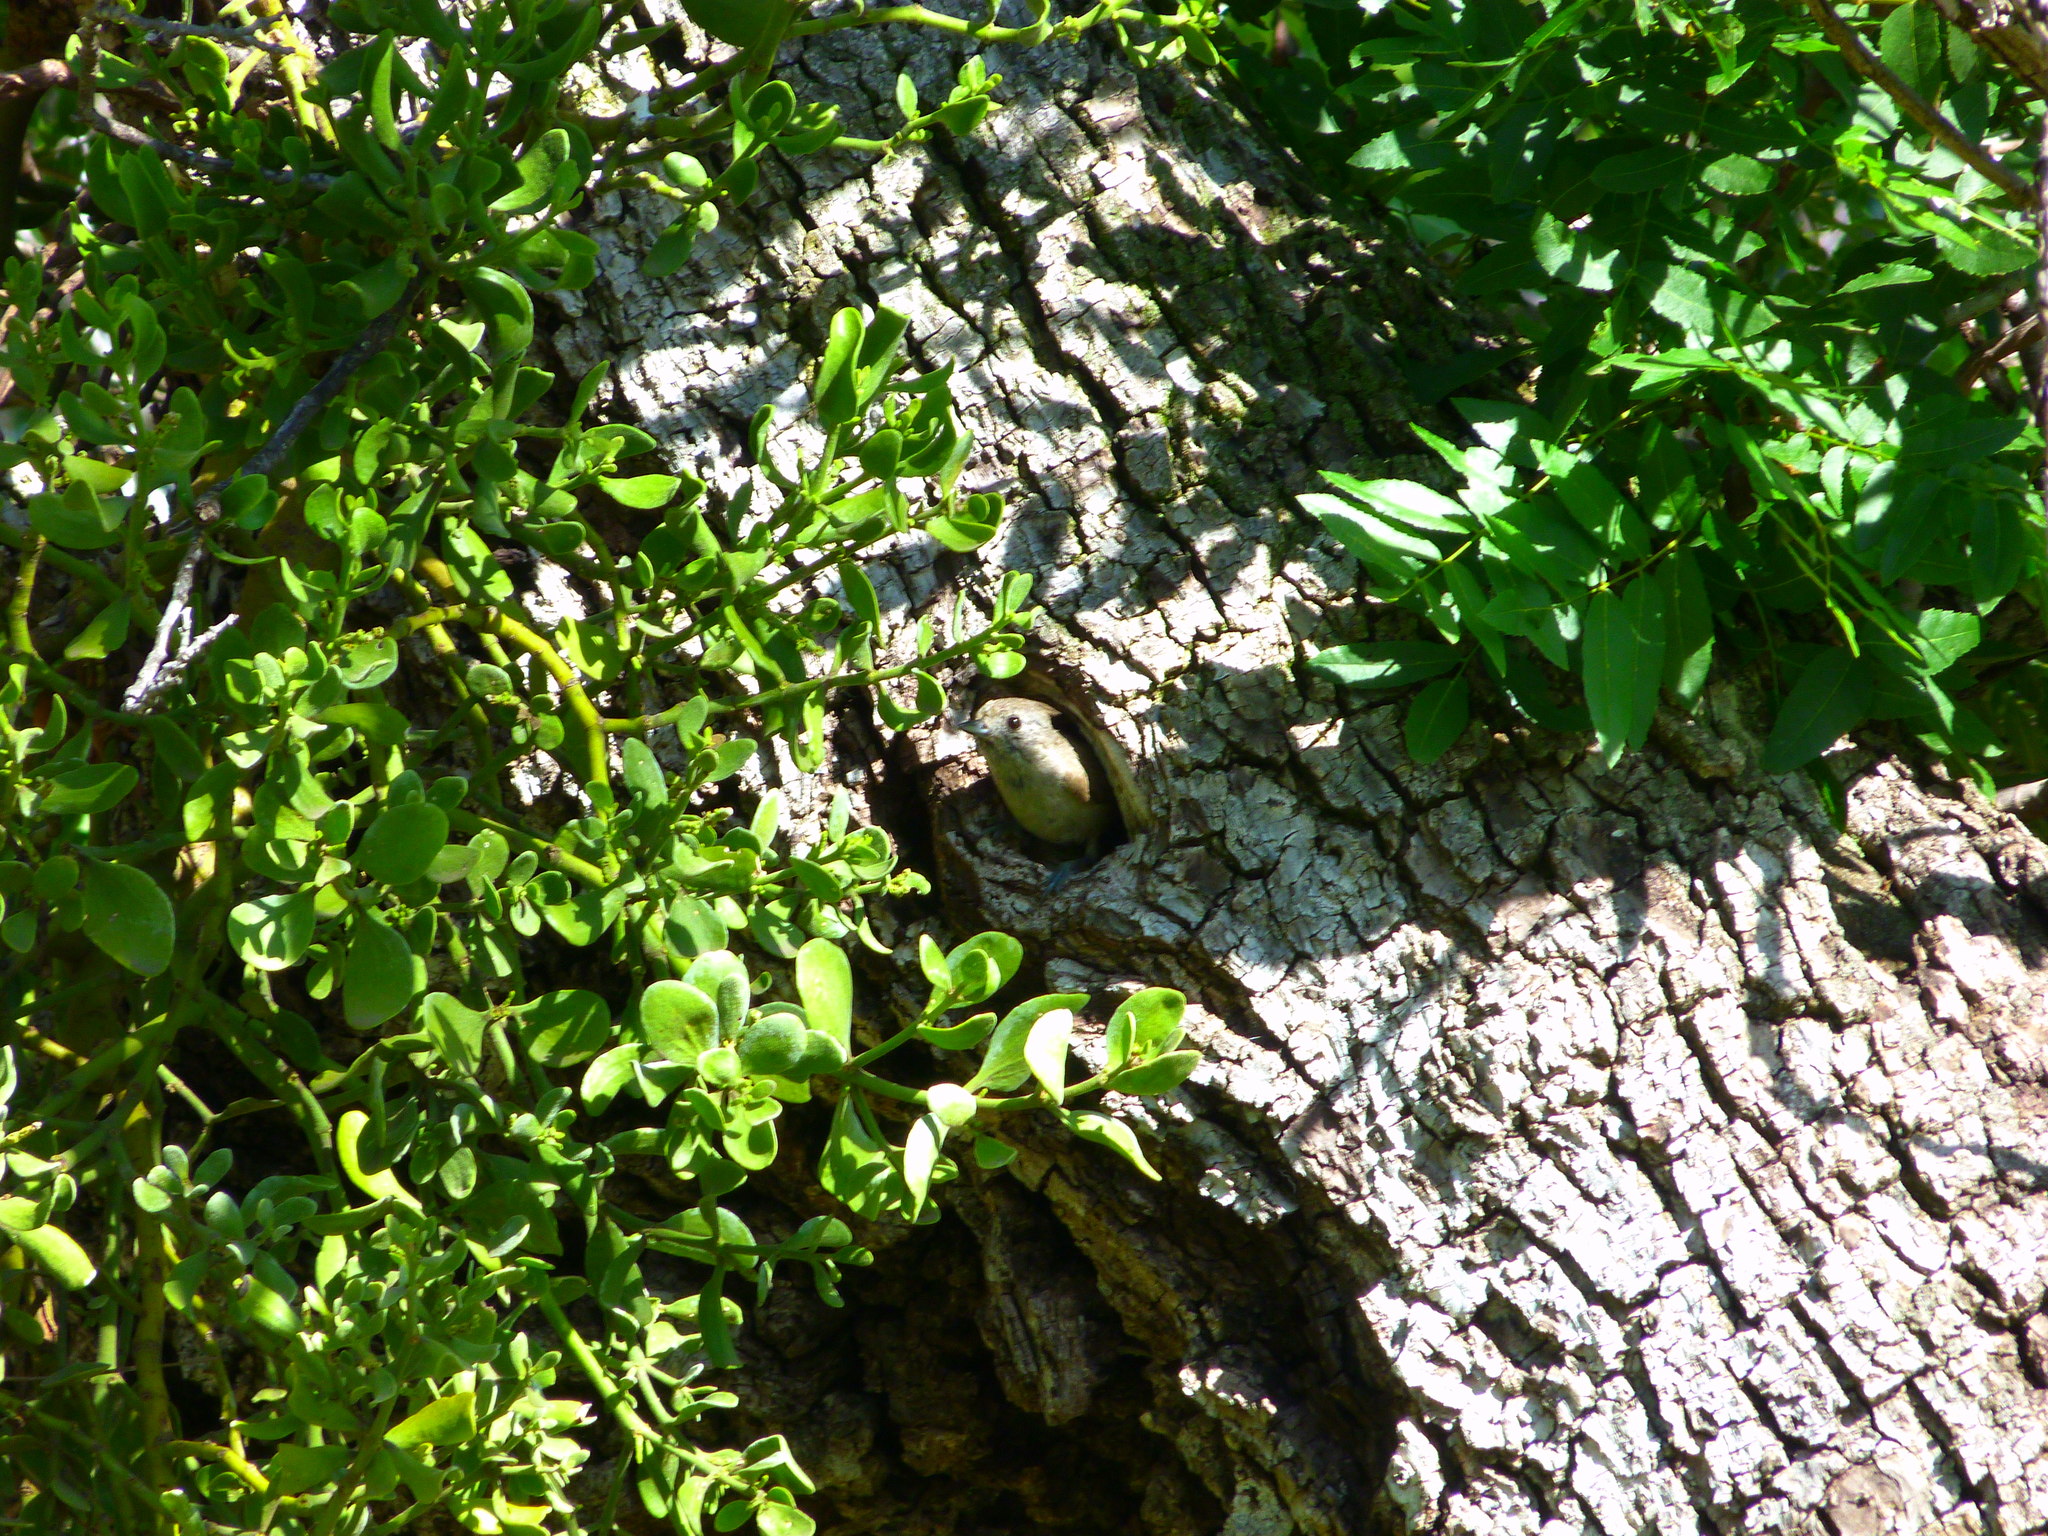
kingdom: Animalia
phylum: Chordata
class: Aves
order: Passeriformes
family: Paridae
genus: Baeolophus
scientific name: Baeolophus inornatus
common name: Oak titmouse
